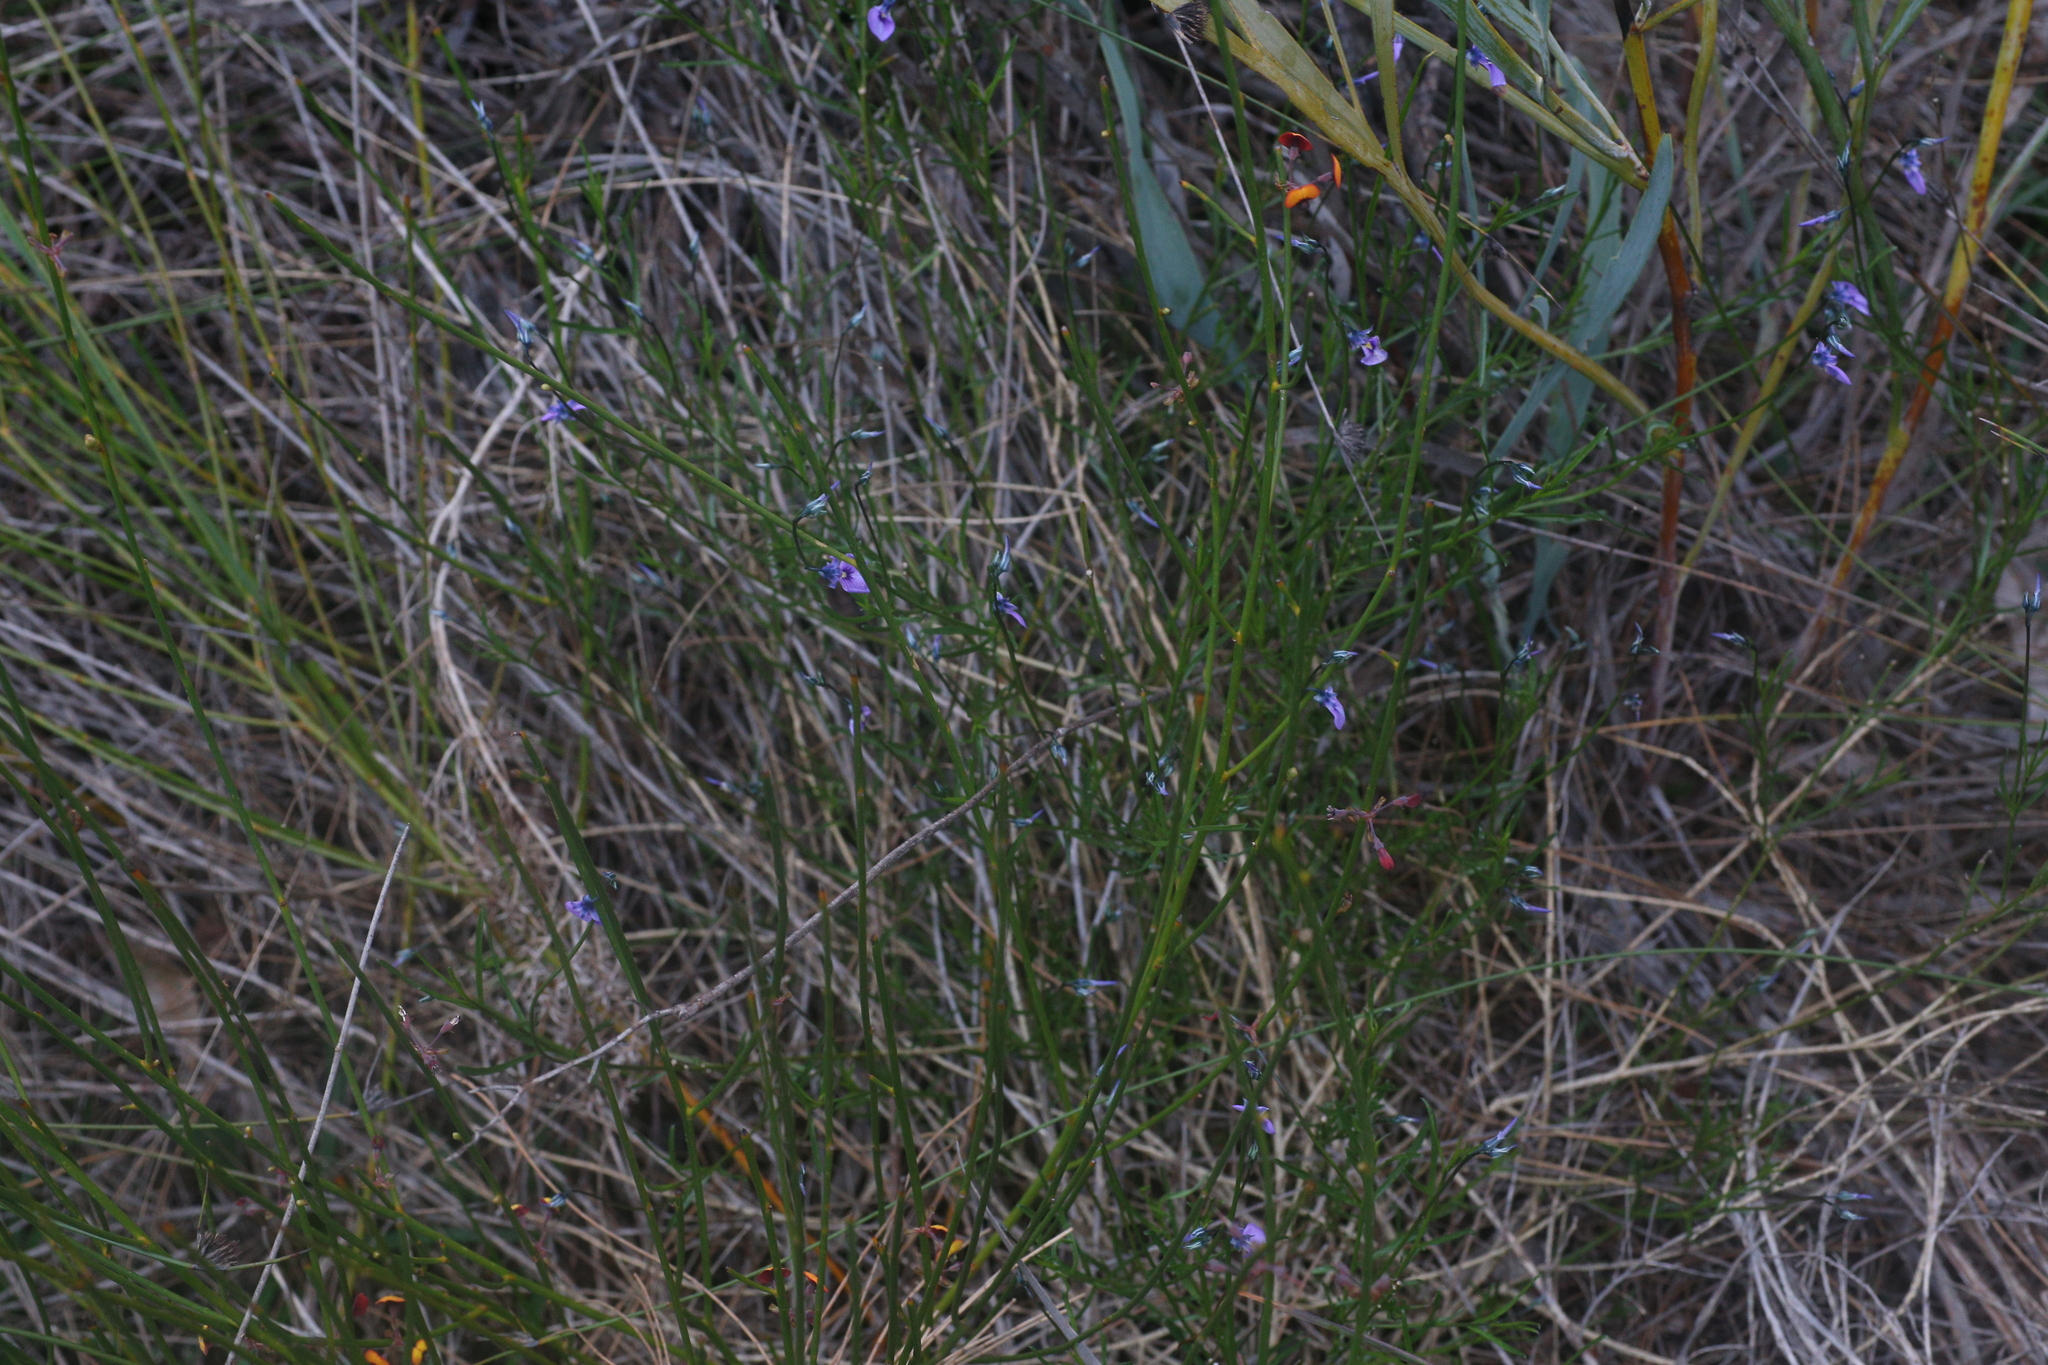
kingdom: Plantae
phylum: Tracheophyta
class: Magnoliopsida
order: Malpighiales
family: Violaceae
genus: Pigea
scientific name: Pigea calycina
